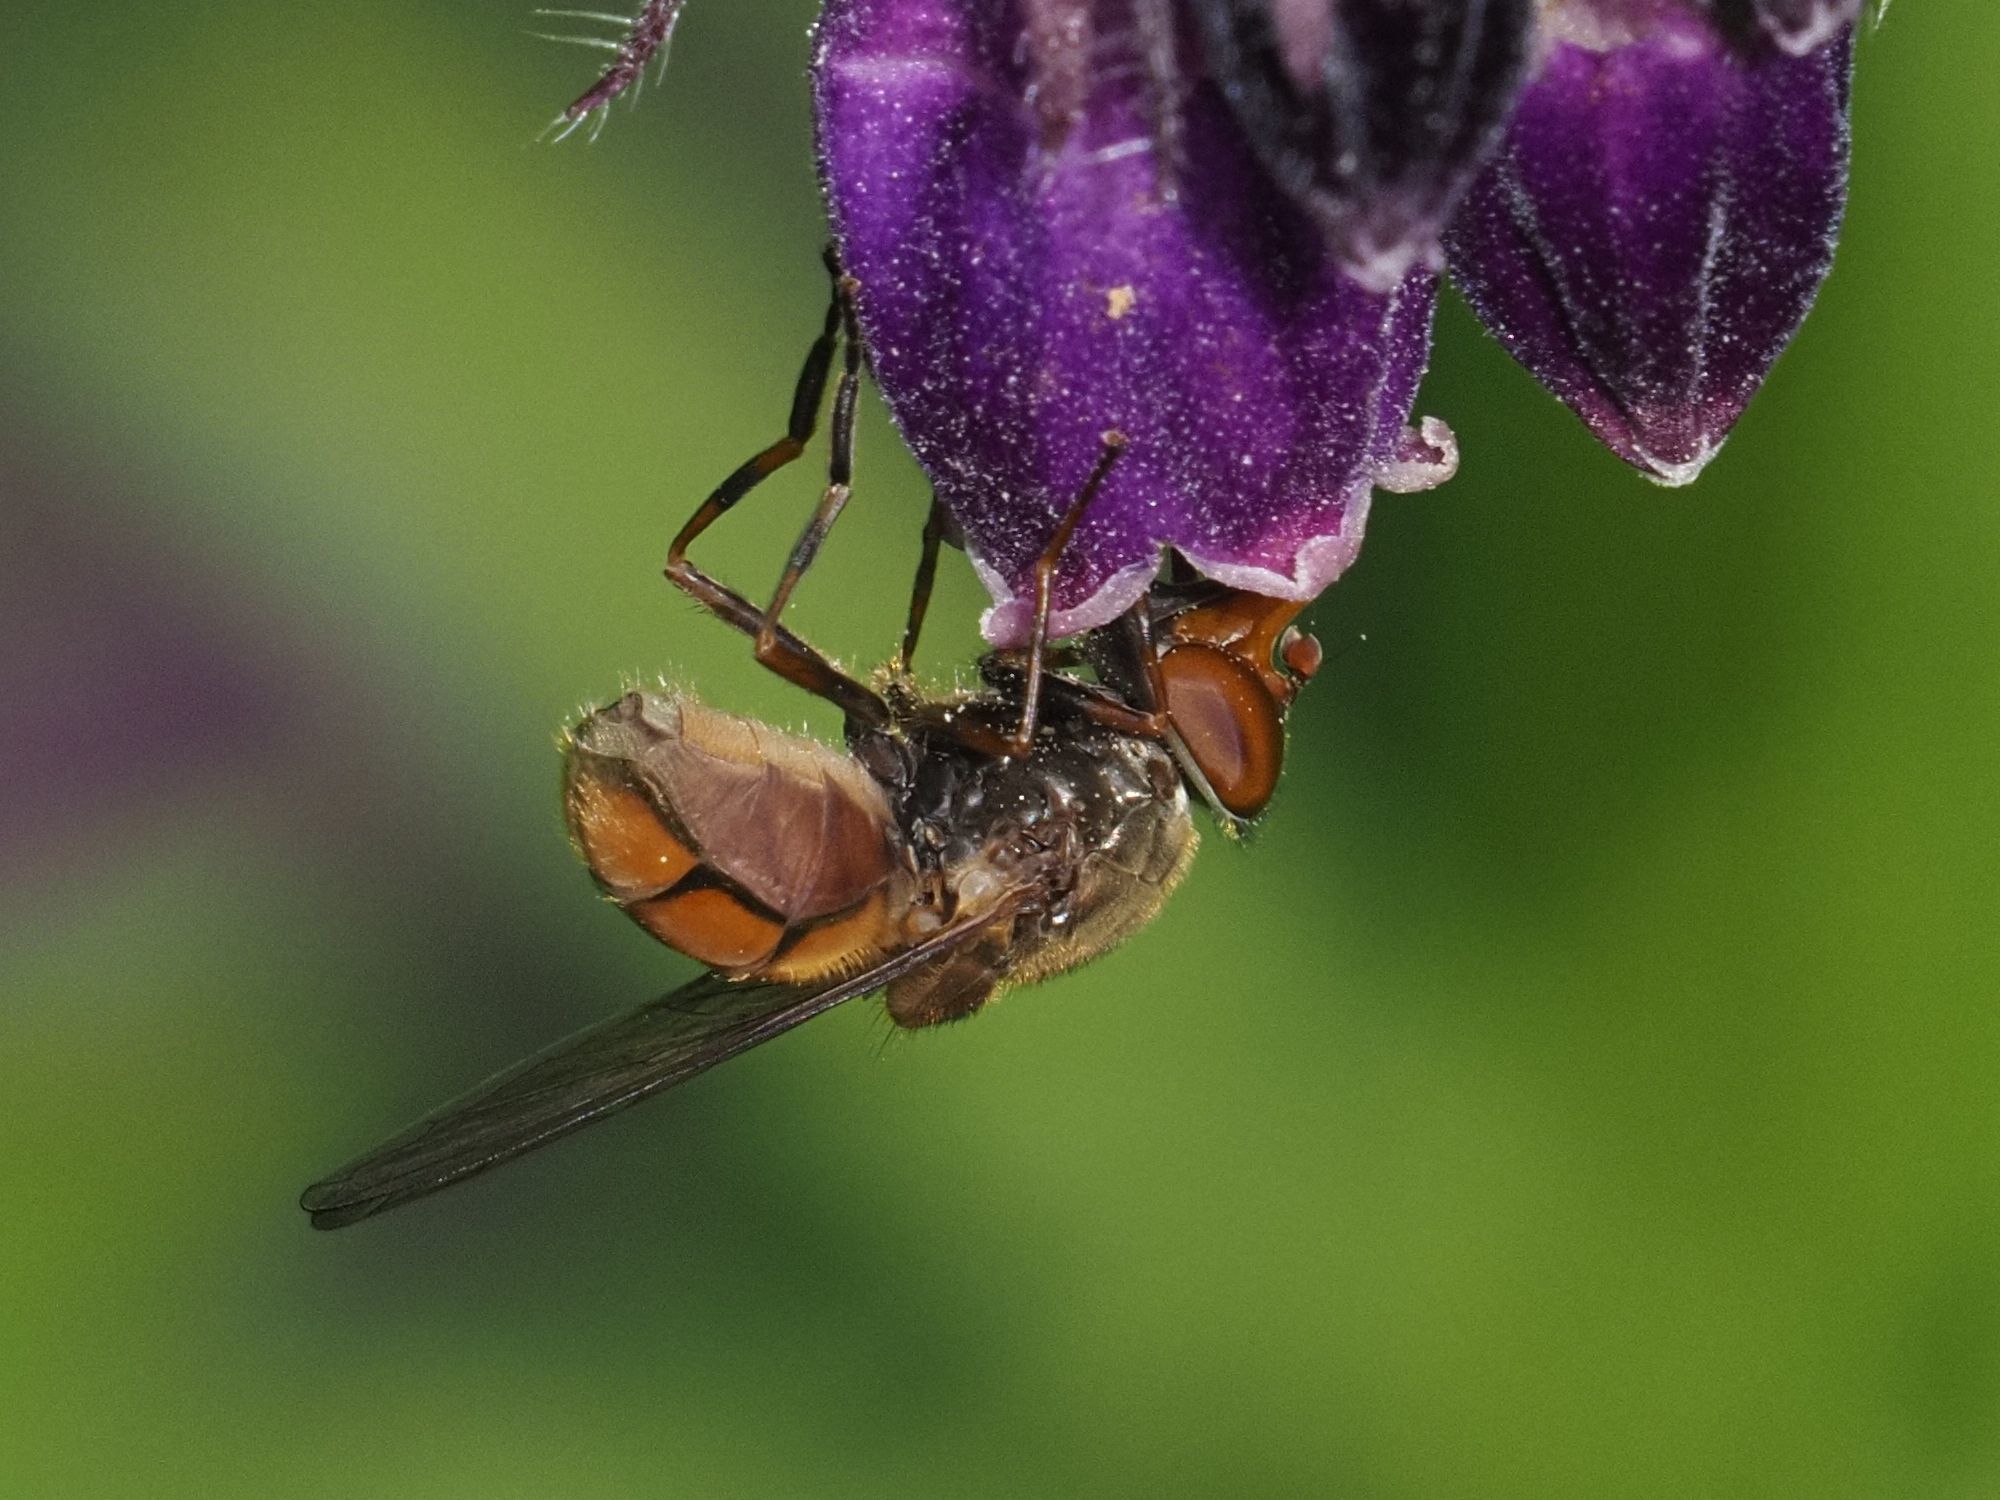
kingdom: Animalia
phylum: Arthropoda
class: Insecta
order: Diptera
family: Syrphidae
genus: Rhingia
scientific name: Rhingia campestris
